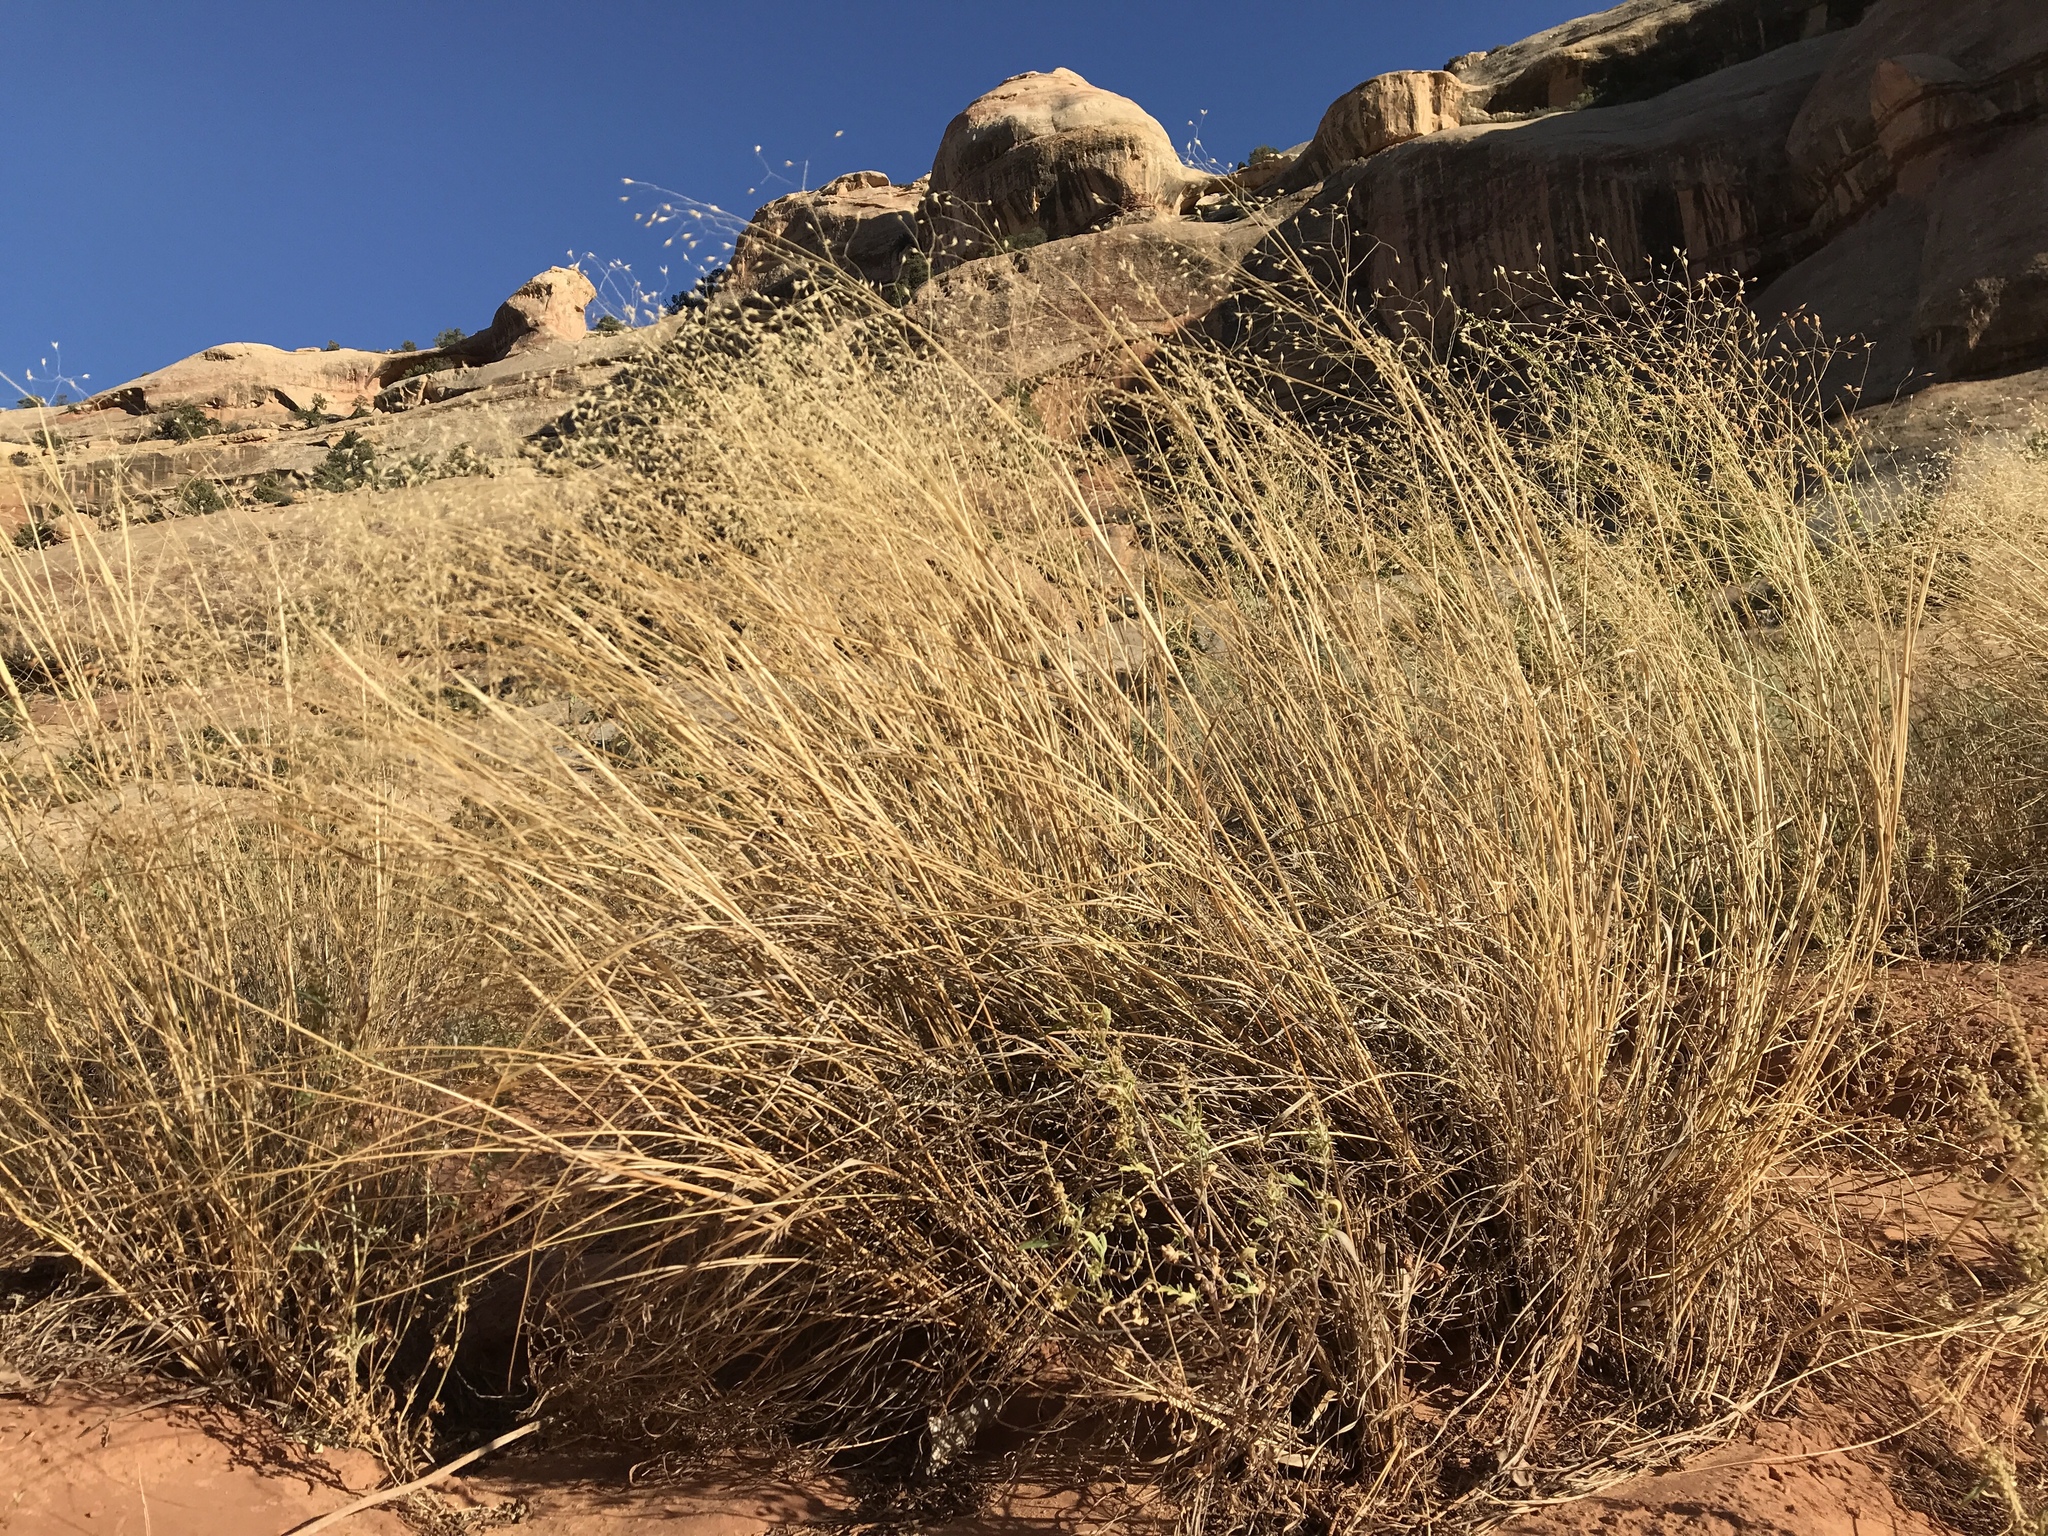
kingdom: Plantae
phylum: Tracheophyta
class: Liliopsida
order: Poales
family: Poaceae
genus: Eriocoma
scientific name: Eriocoma hymenoides
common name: Indian mountain ricegrass
